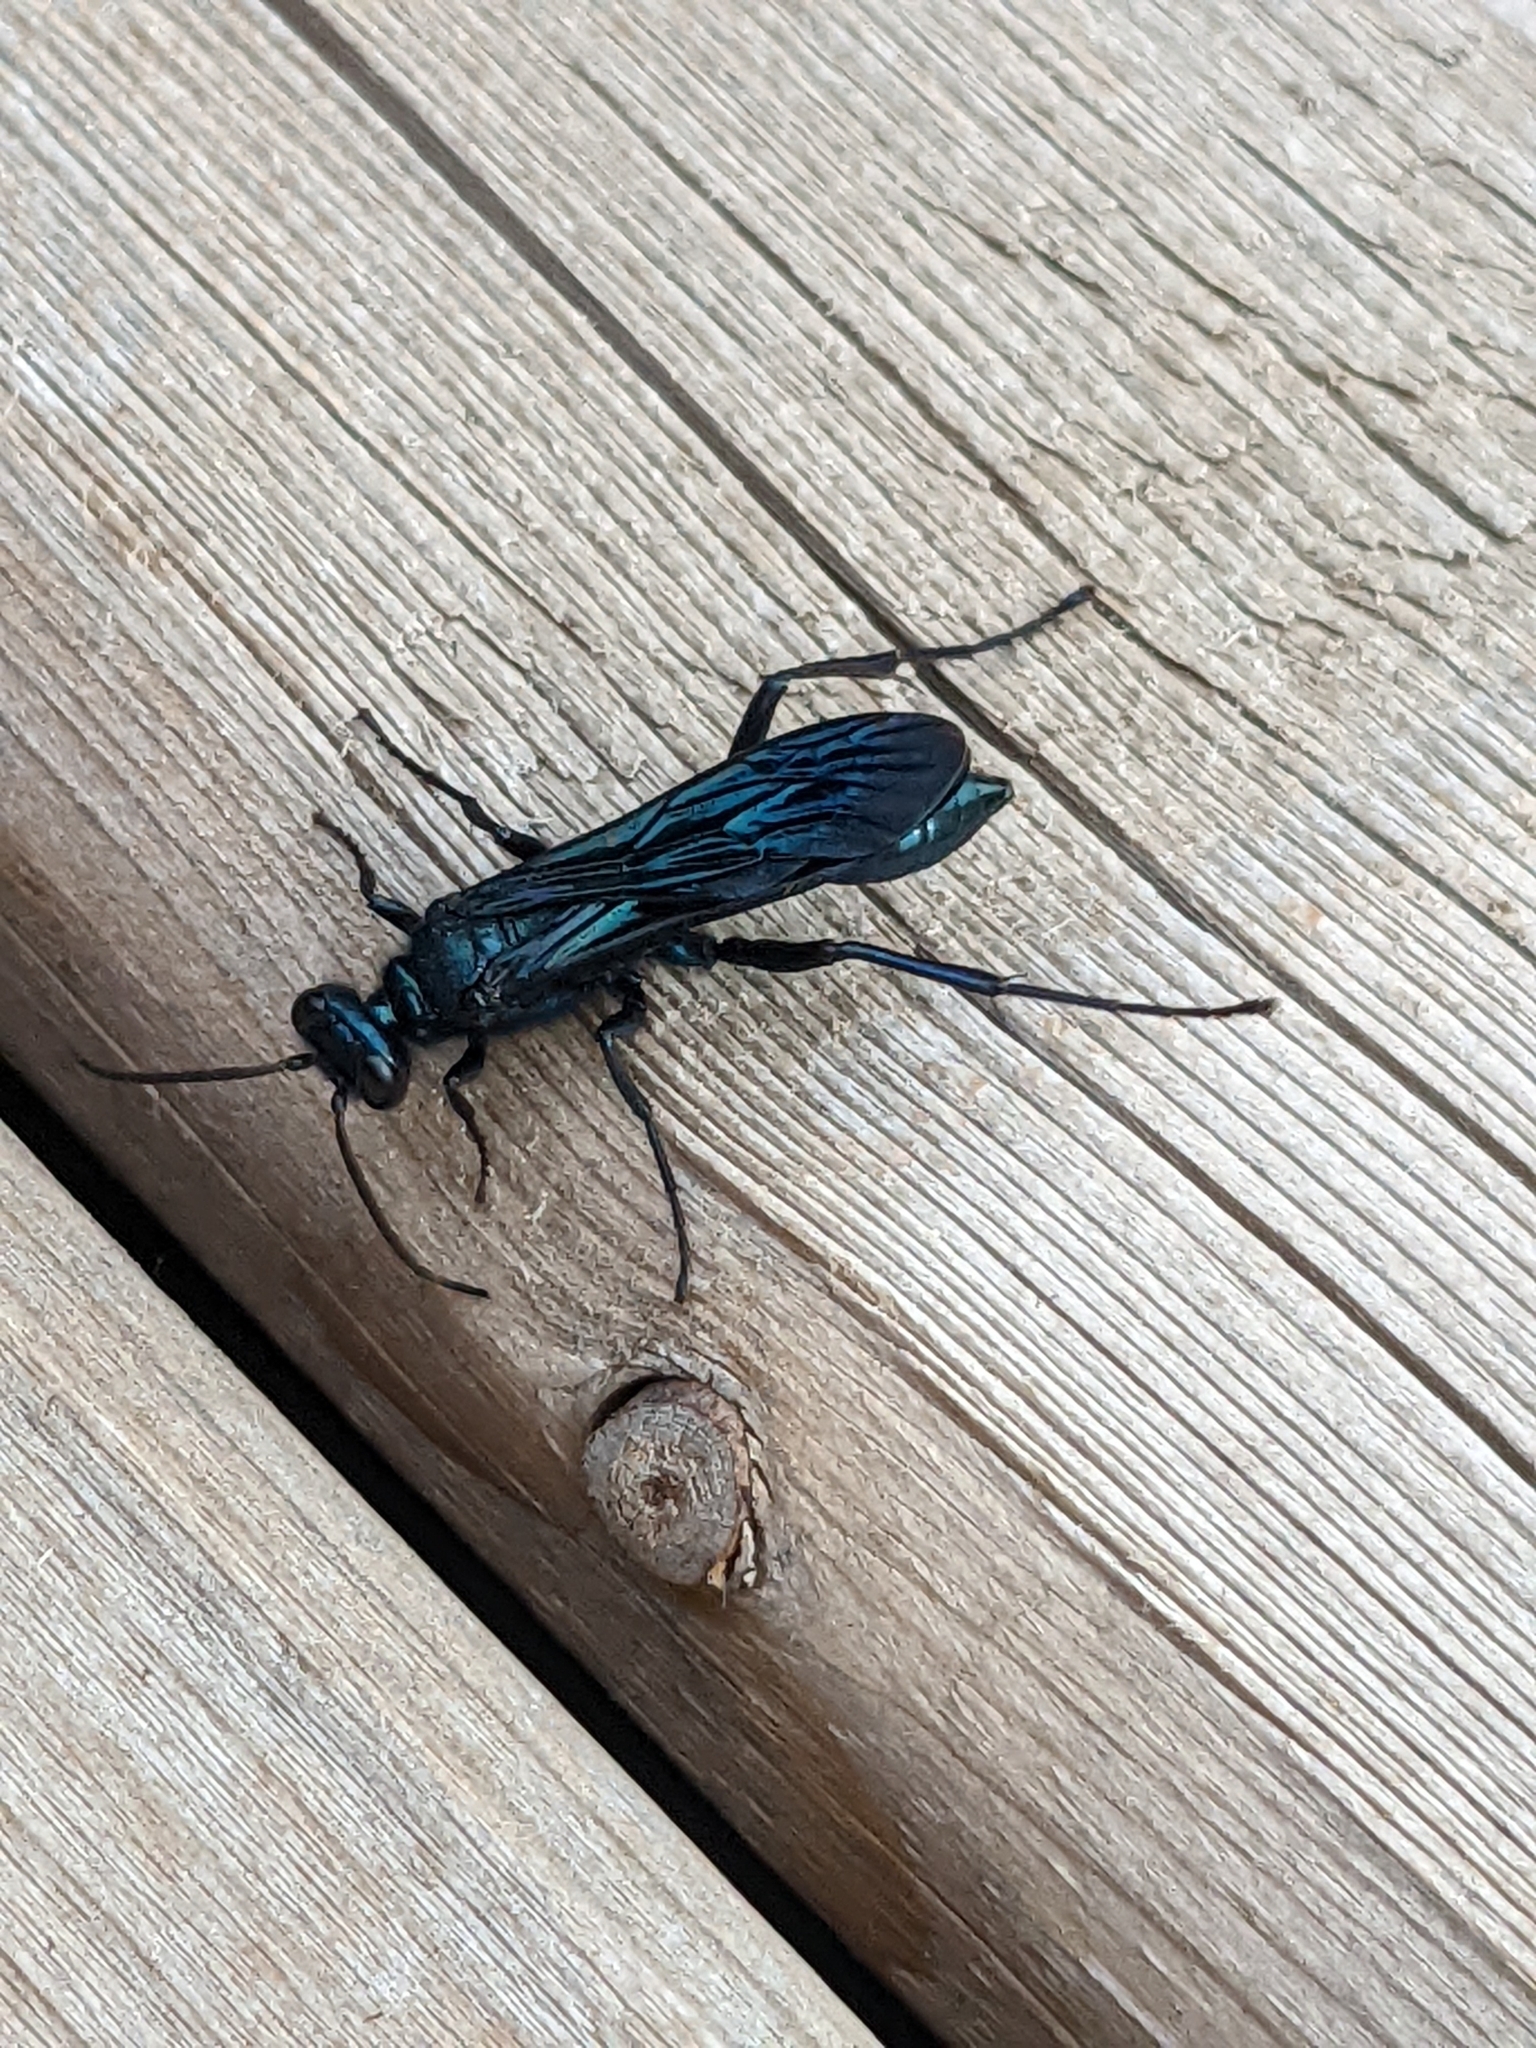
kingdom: Animalia
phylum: Arthropoda
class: Insecta
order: Hymenoptera
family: Sphecidae
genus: Chalybion
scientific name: Chalybion californicum
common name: Mud dauber
